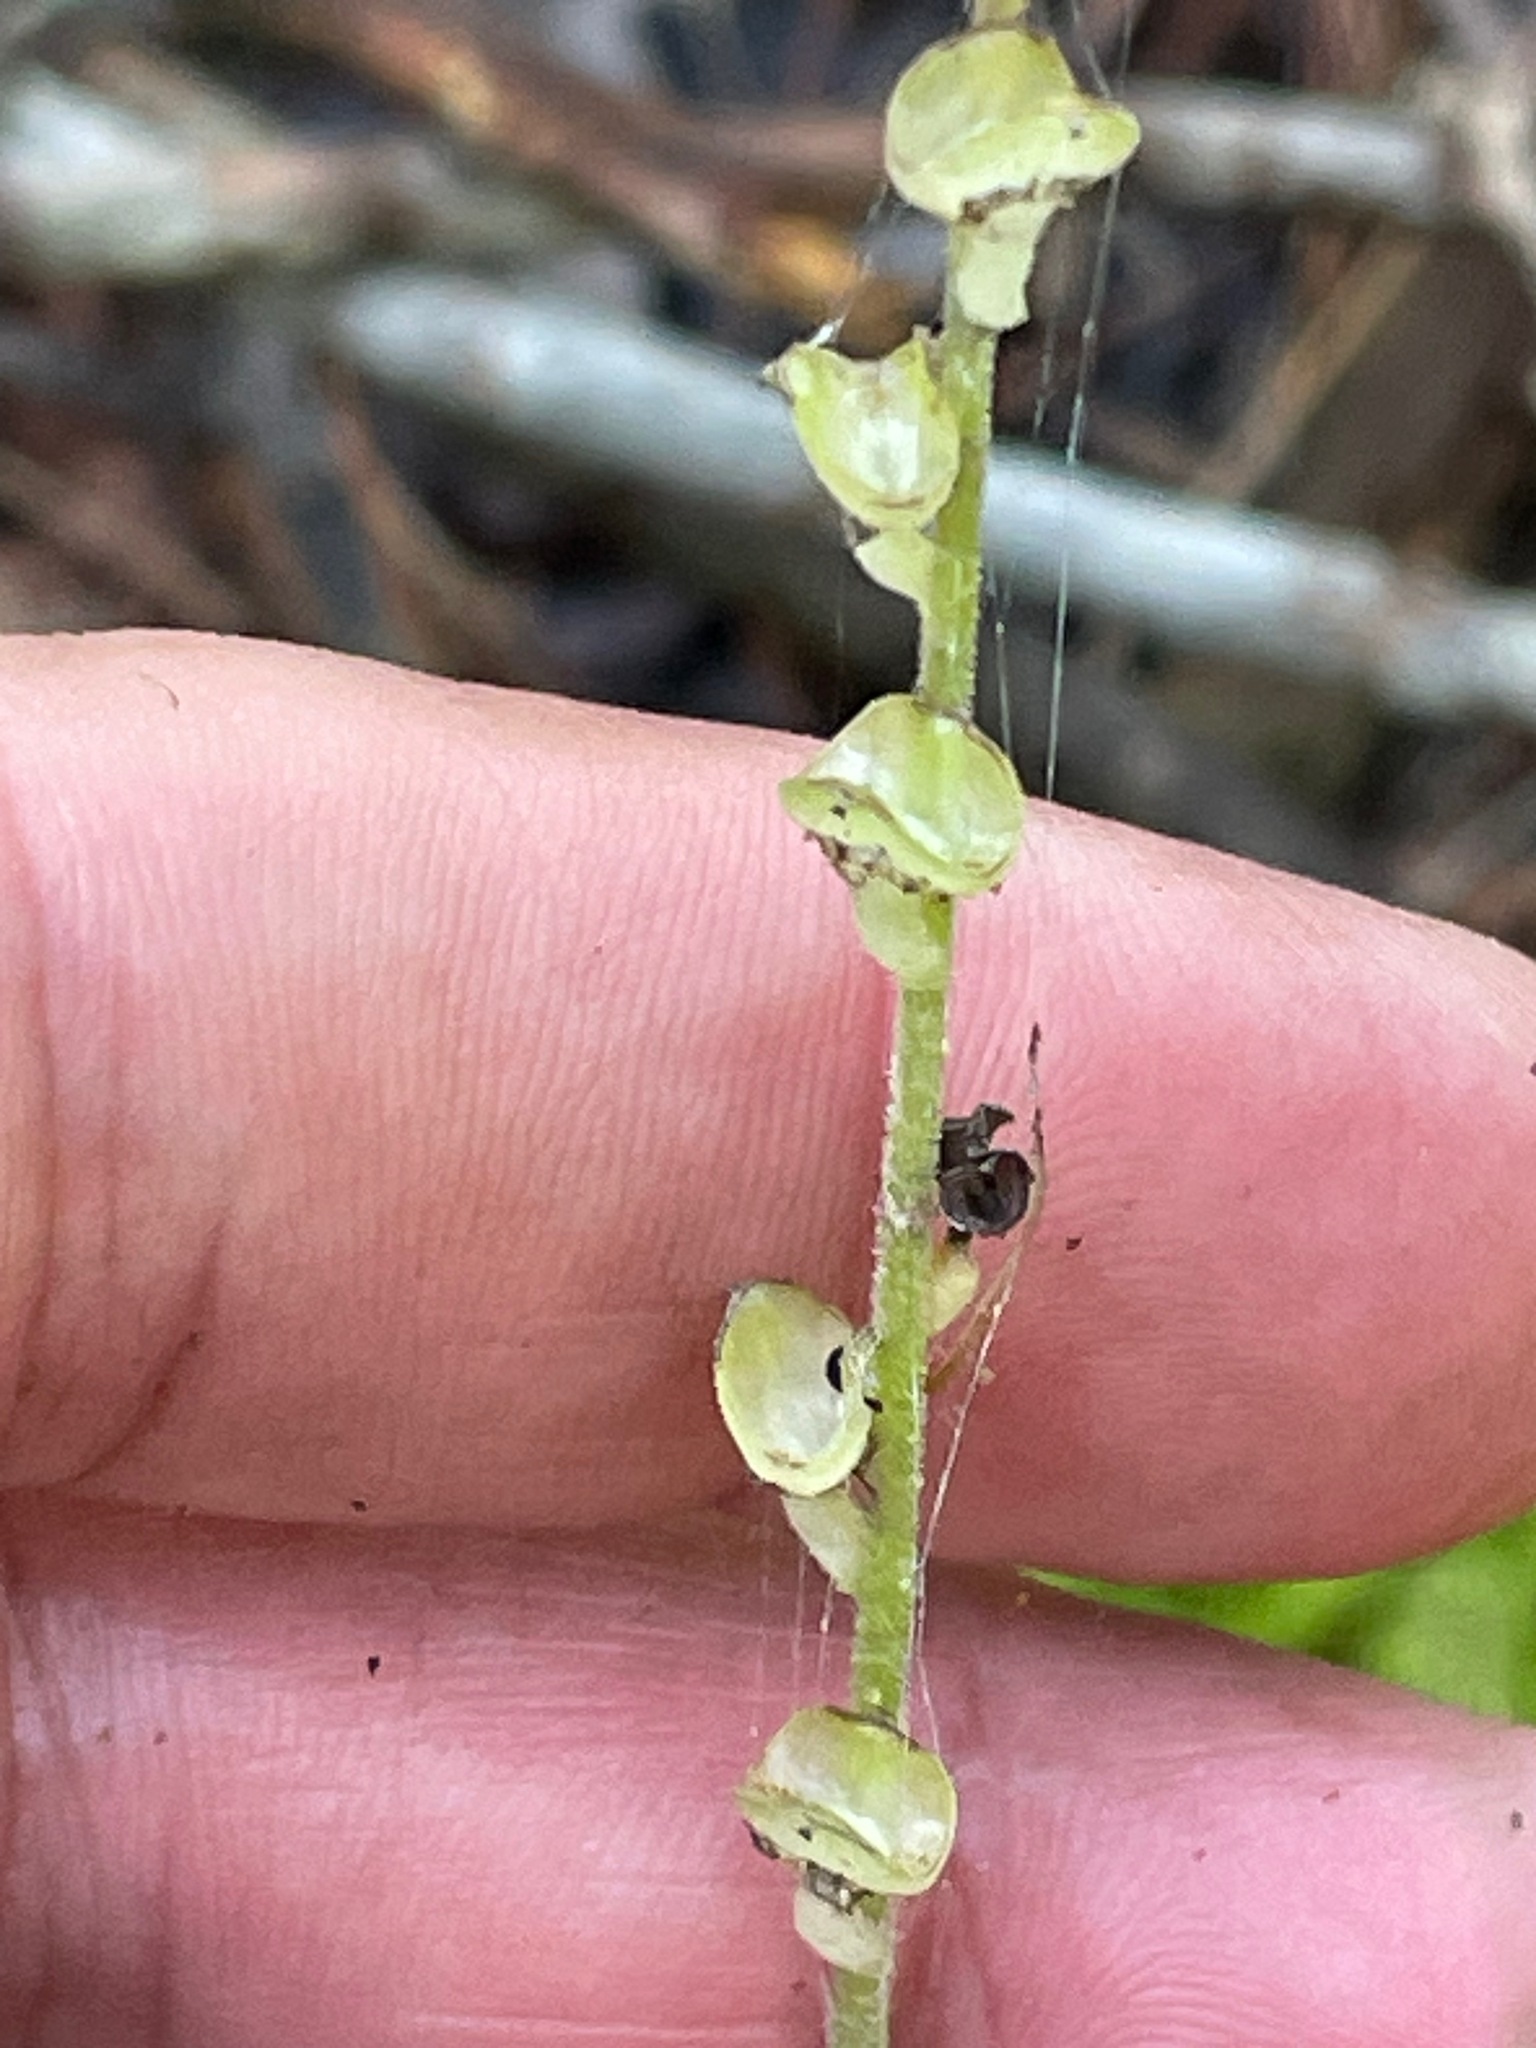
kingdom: Plantae
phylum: Tracheophyta
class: Magnoliopsida
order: Saxifragales
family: Saxifragaceae
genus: Mitella
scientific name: Mitella diphylla
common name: Coolwort
